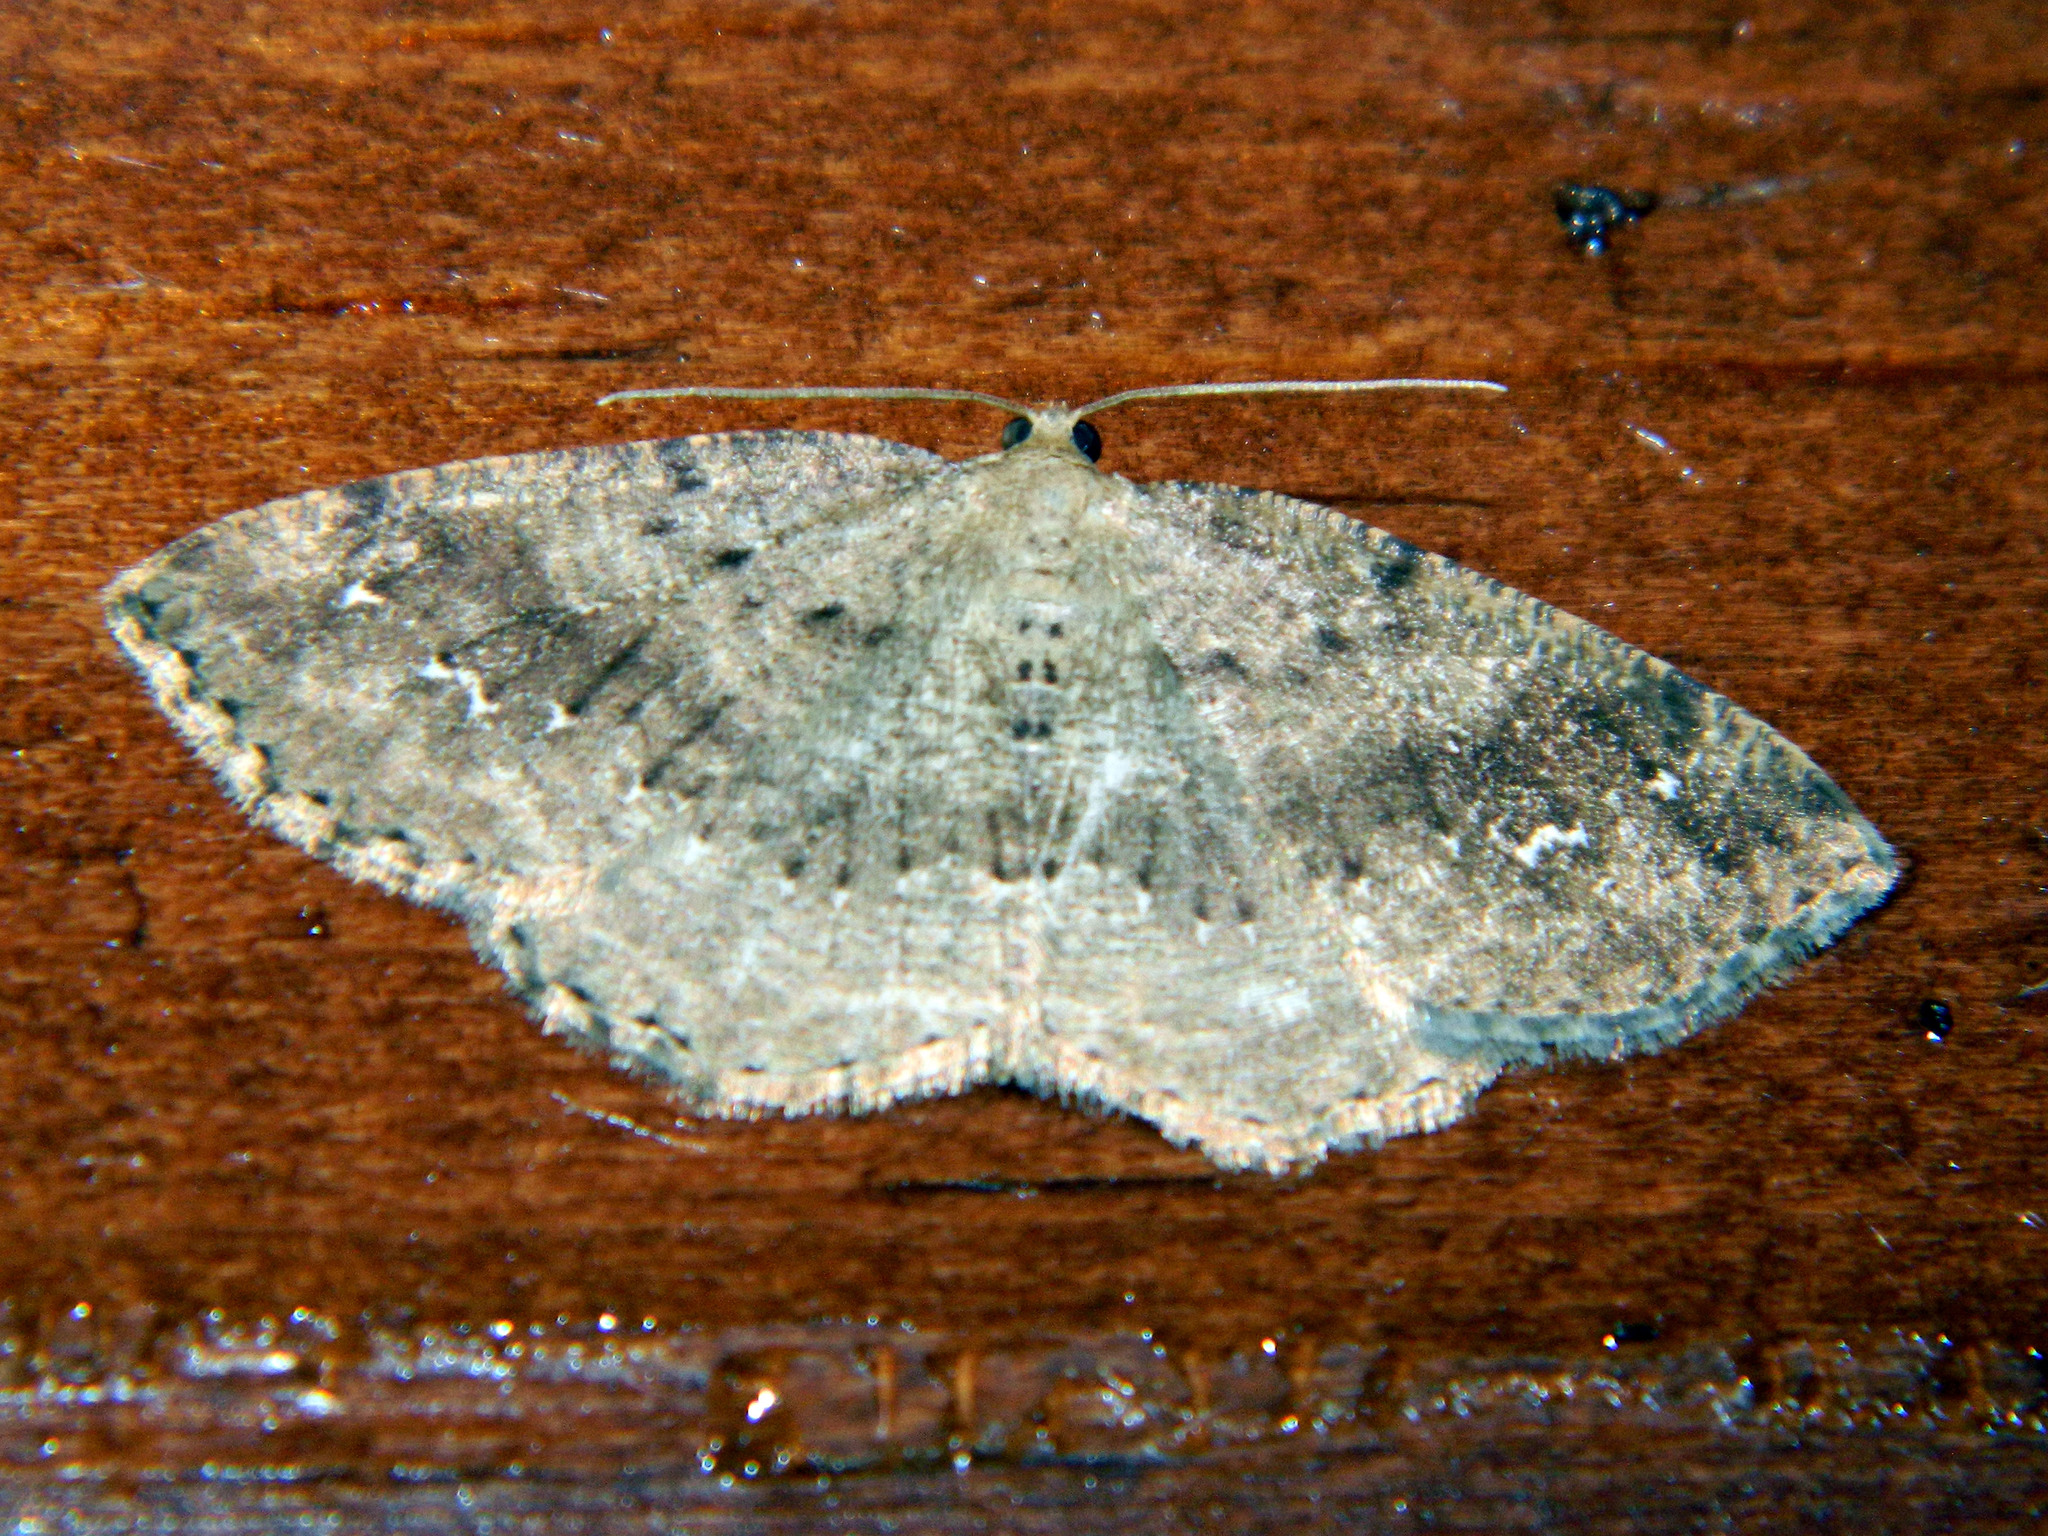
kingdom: Animalia
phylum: Arthropoda
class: Insecta
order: Lepidoptera
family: Geometridae
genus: Homochlodes
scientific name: Homochlodes fritillaria
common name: Pale homochlodes
